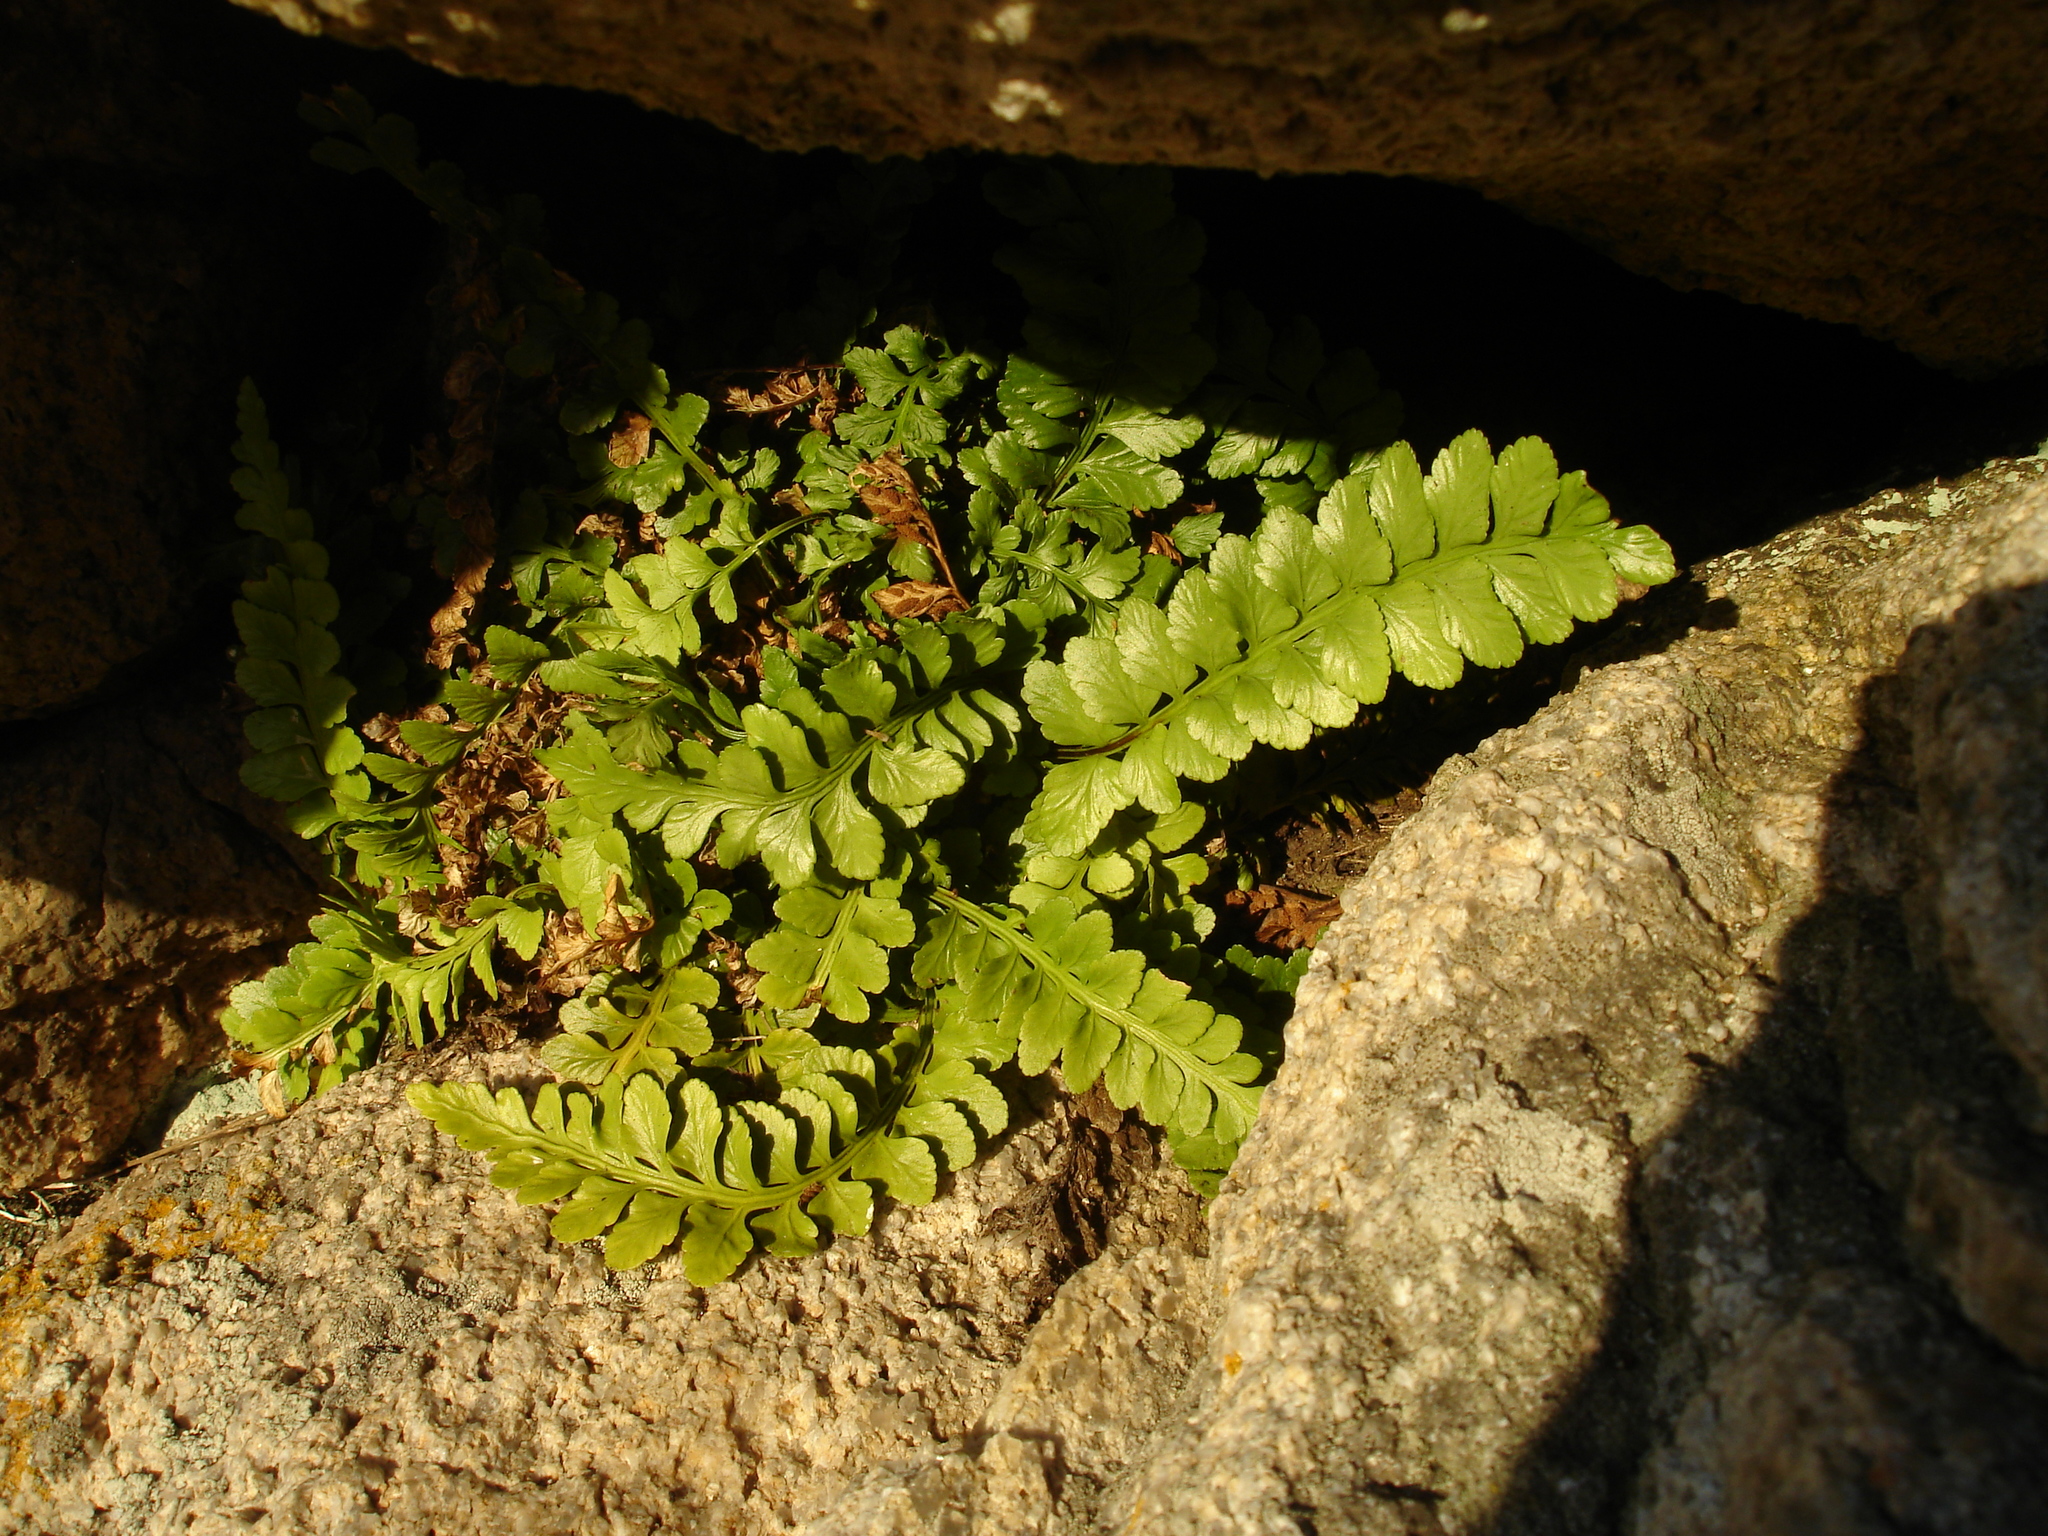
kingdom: Plantae
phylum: Tracheophyta
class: Polypodiopsida
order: Polypodiales
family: Aspleniaceae
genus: Asplenium
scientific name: Asplenium marinum
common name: Sea spleenwort
